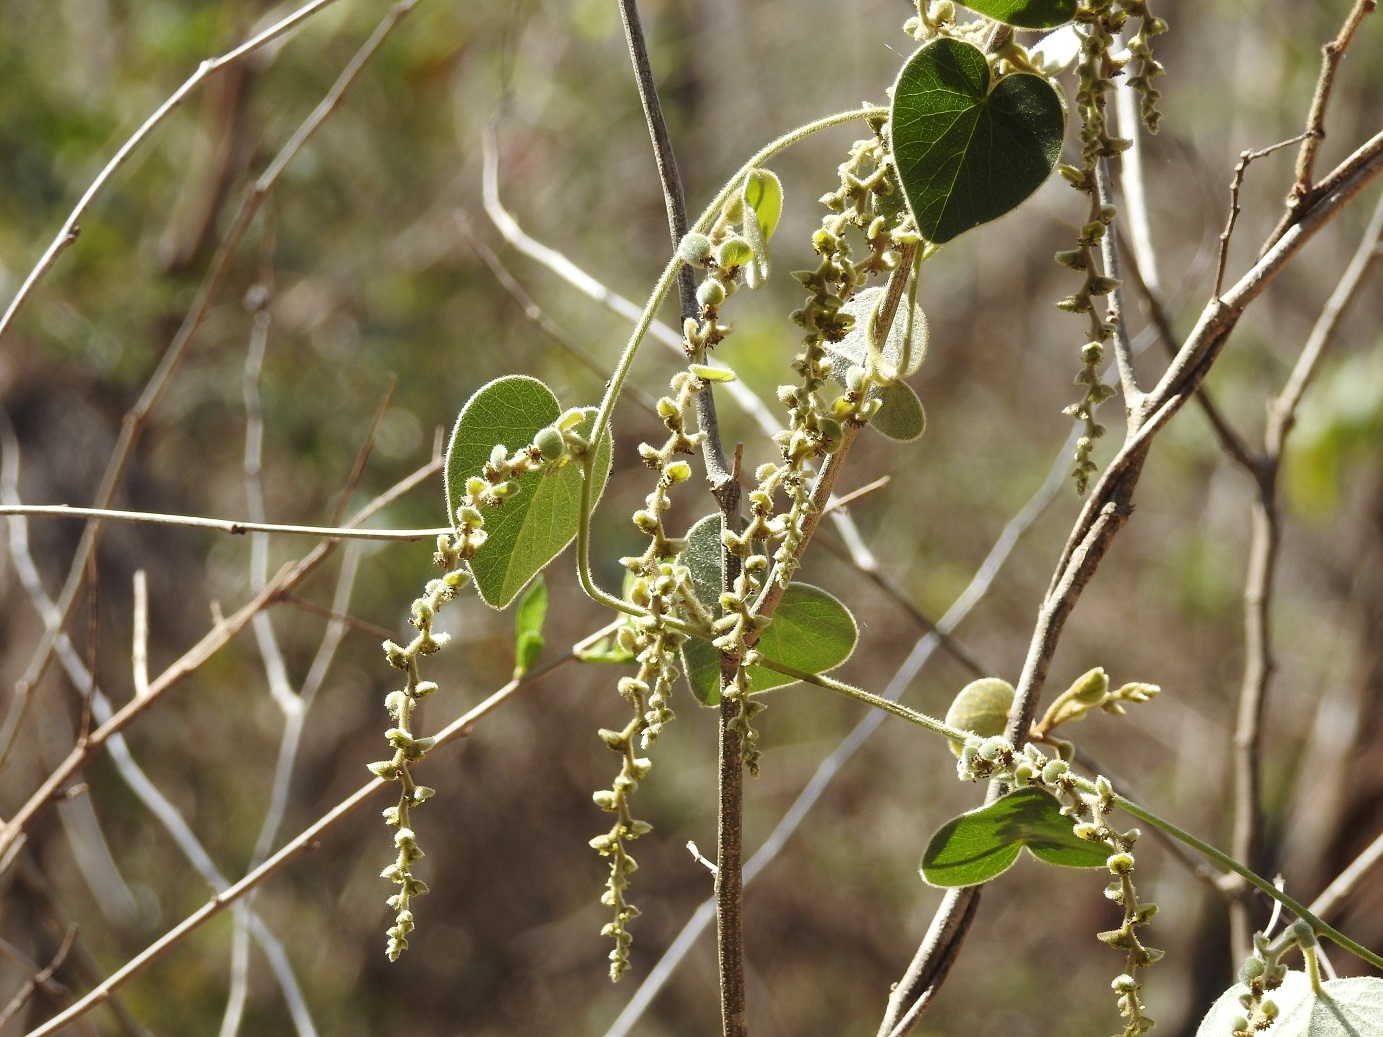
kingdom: Plantae
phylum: Tracheophyta
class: Magnoliopsida
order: Ranunculales
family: Menispermaceae
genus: Cissampelos
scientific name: Cissampelos pareira
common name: Velvetleaf
